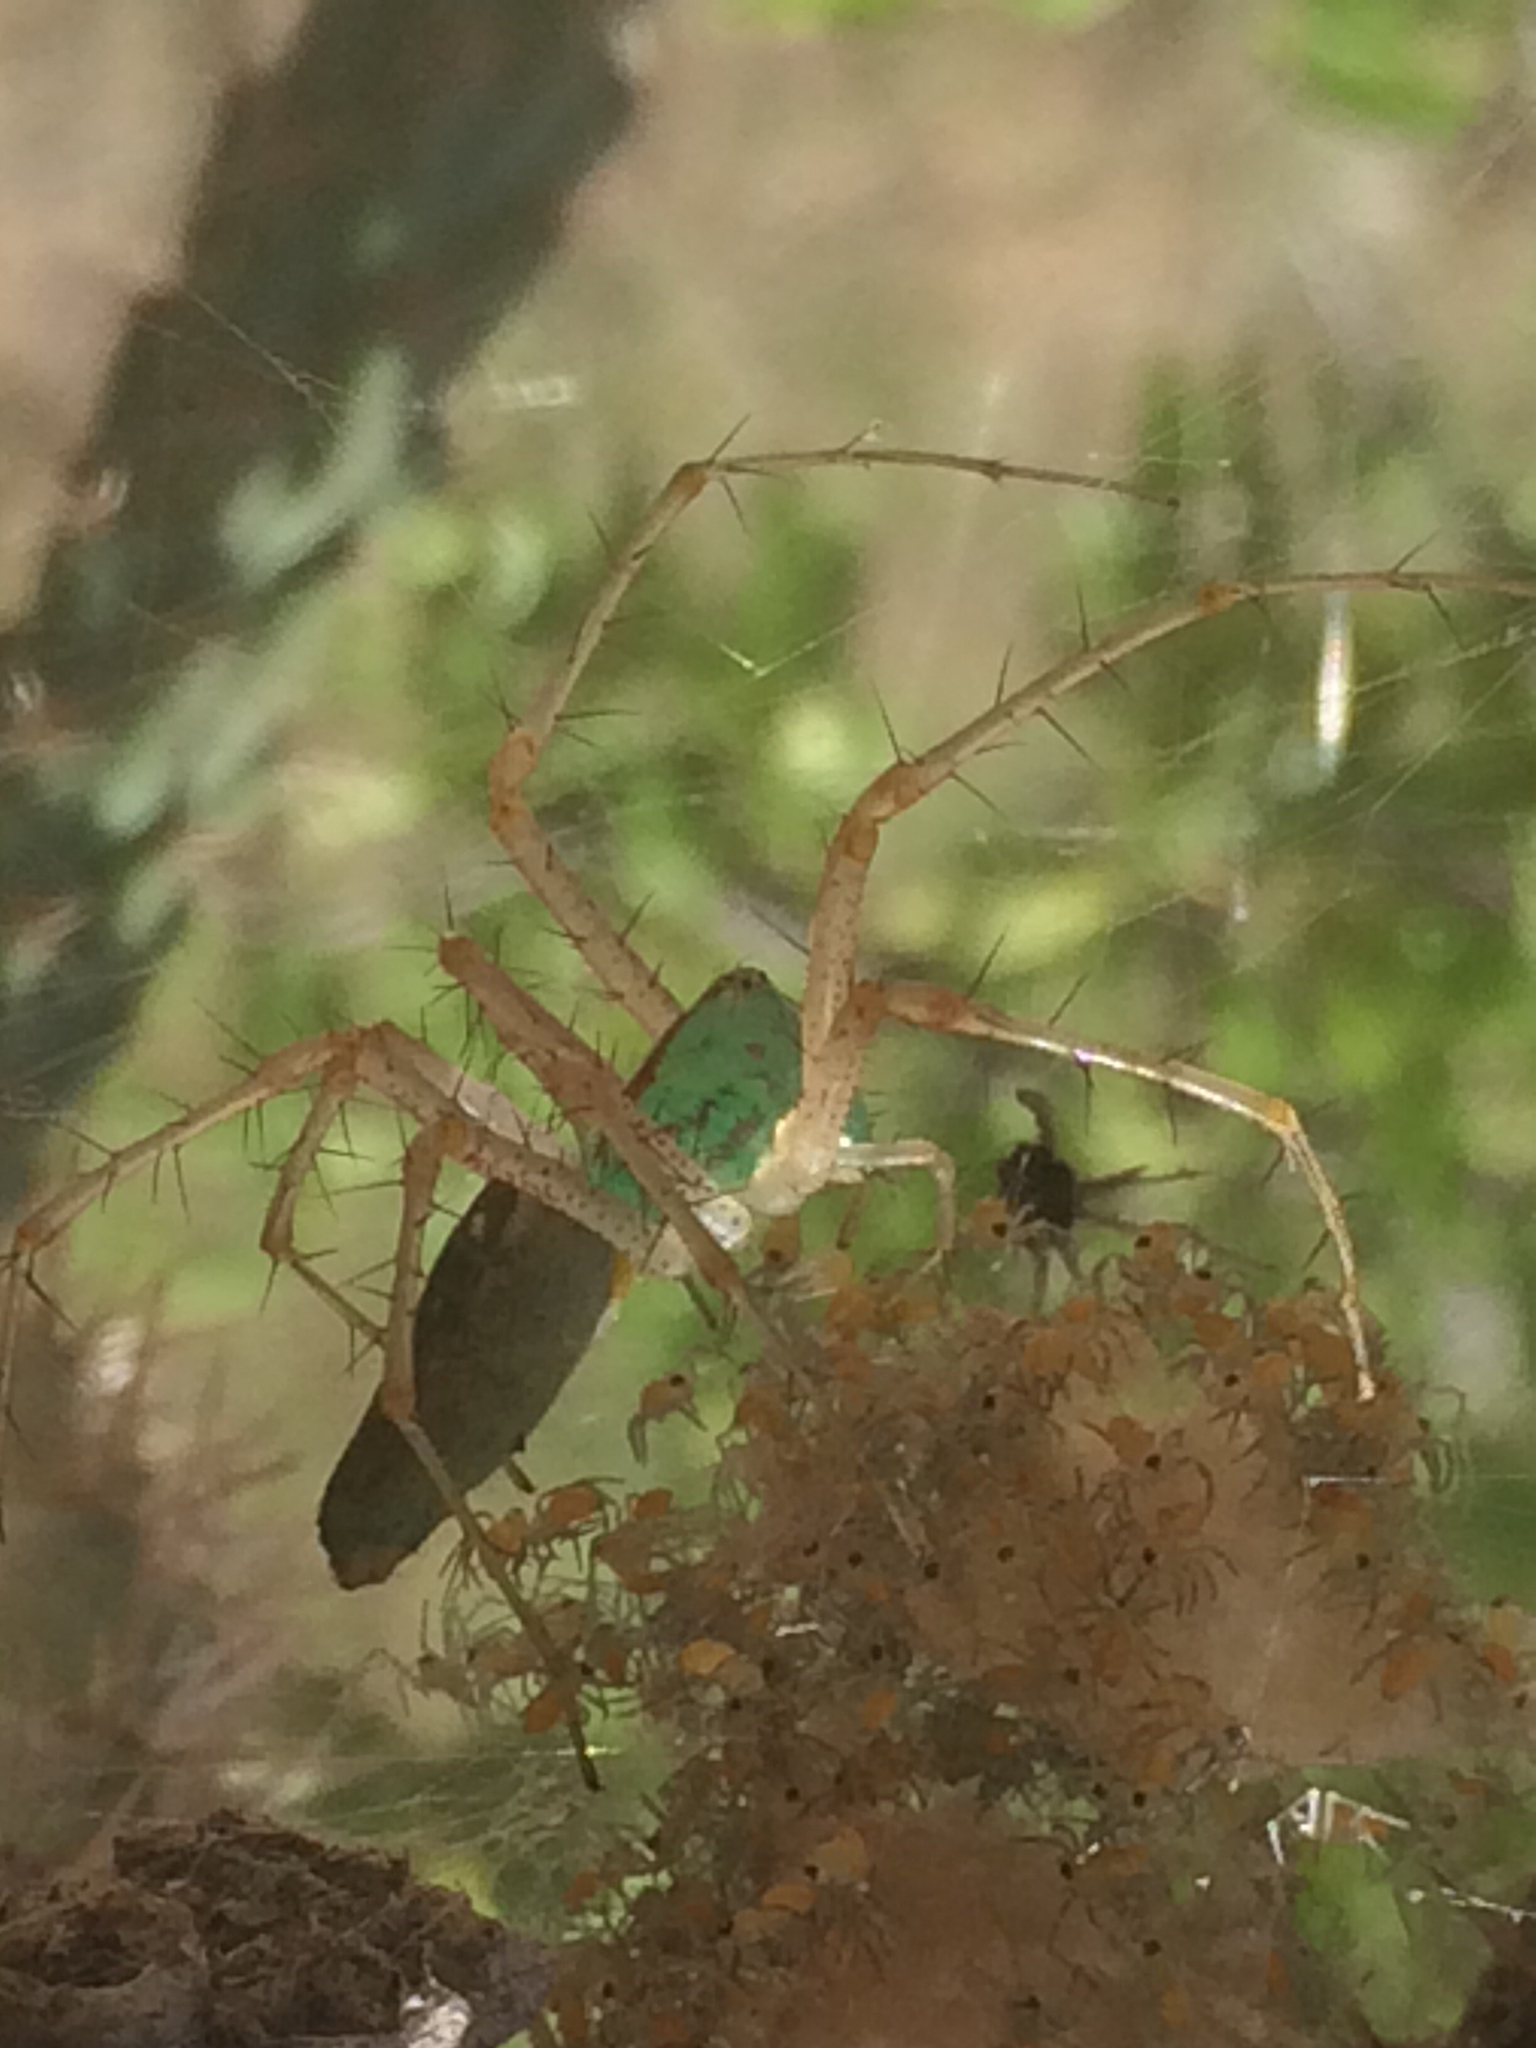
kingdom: Animalia
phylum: Arthropoda
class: Arachnida
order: Araneae
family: Oxyopidae
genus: Peucetia
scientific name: Peucetia viridans
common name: Lynx spiders
